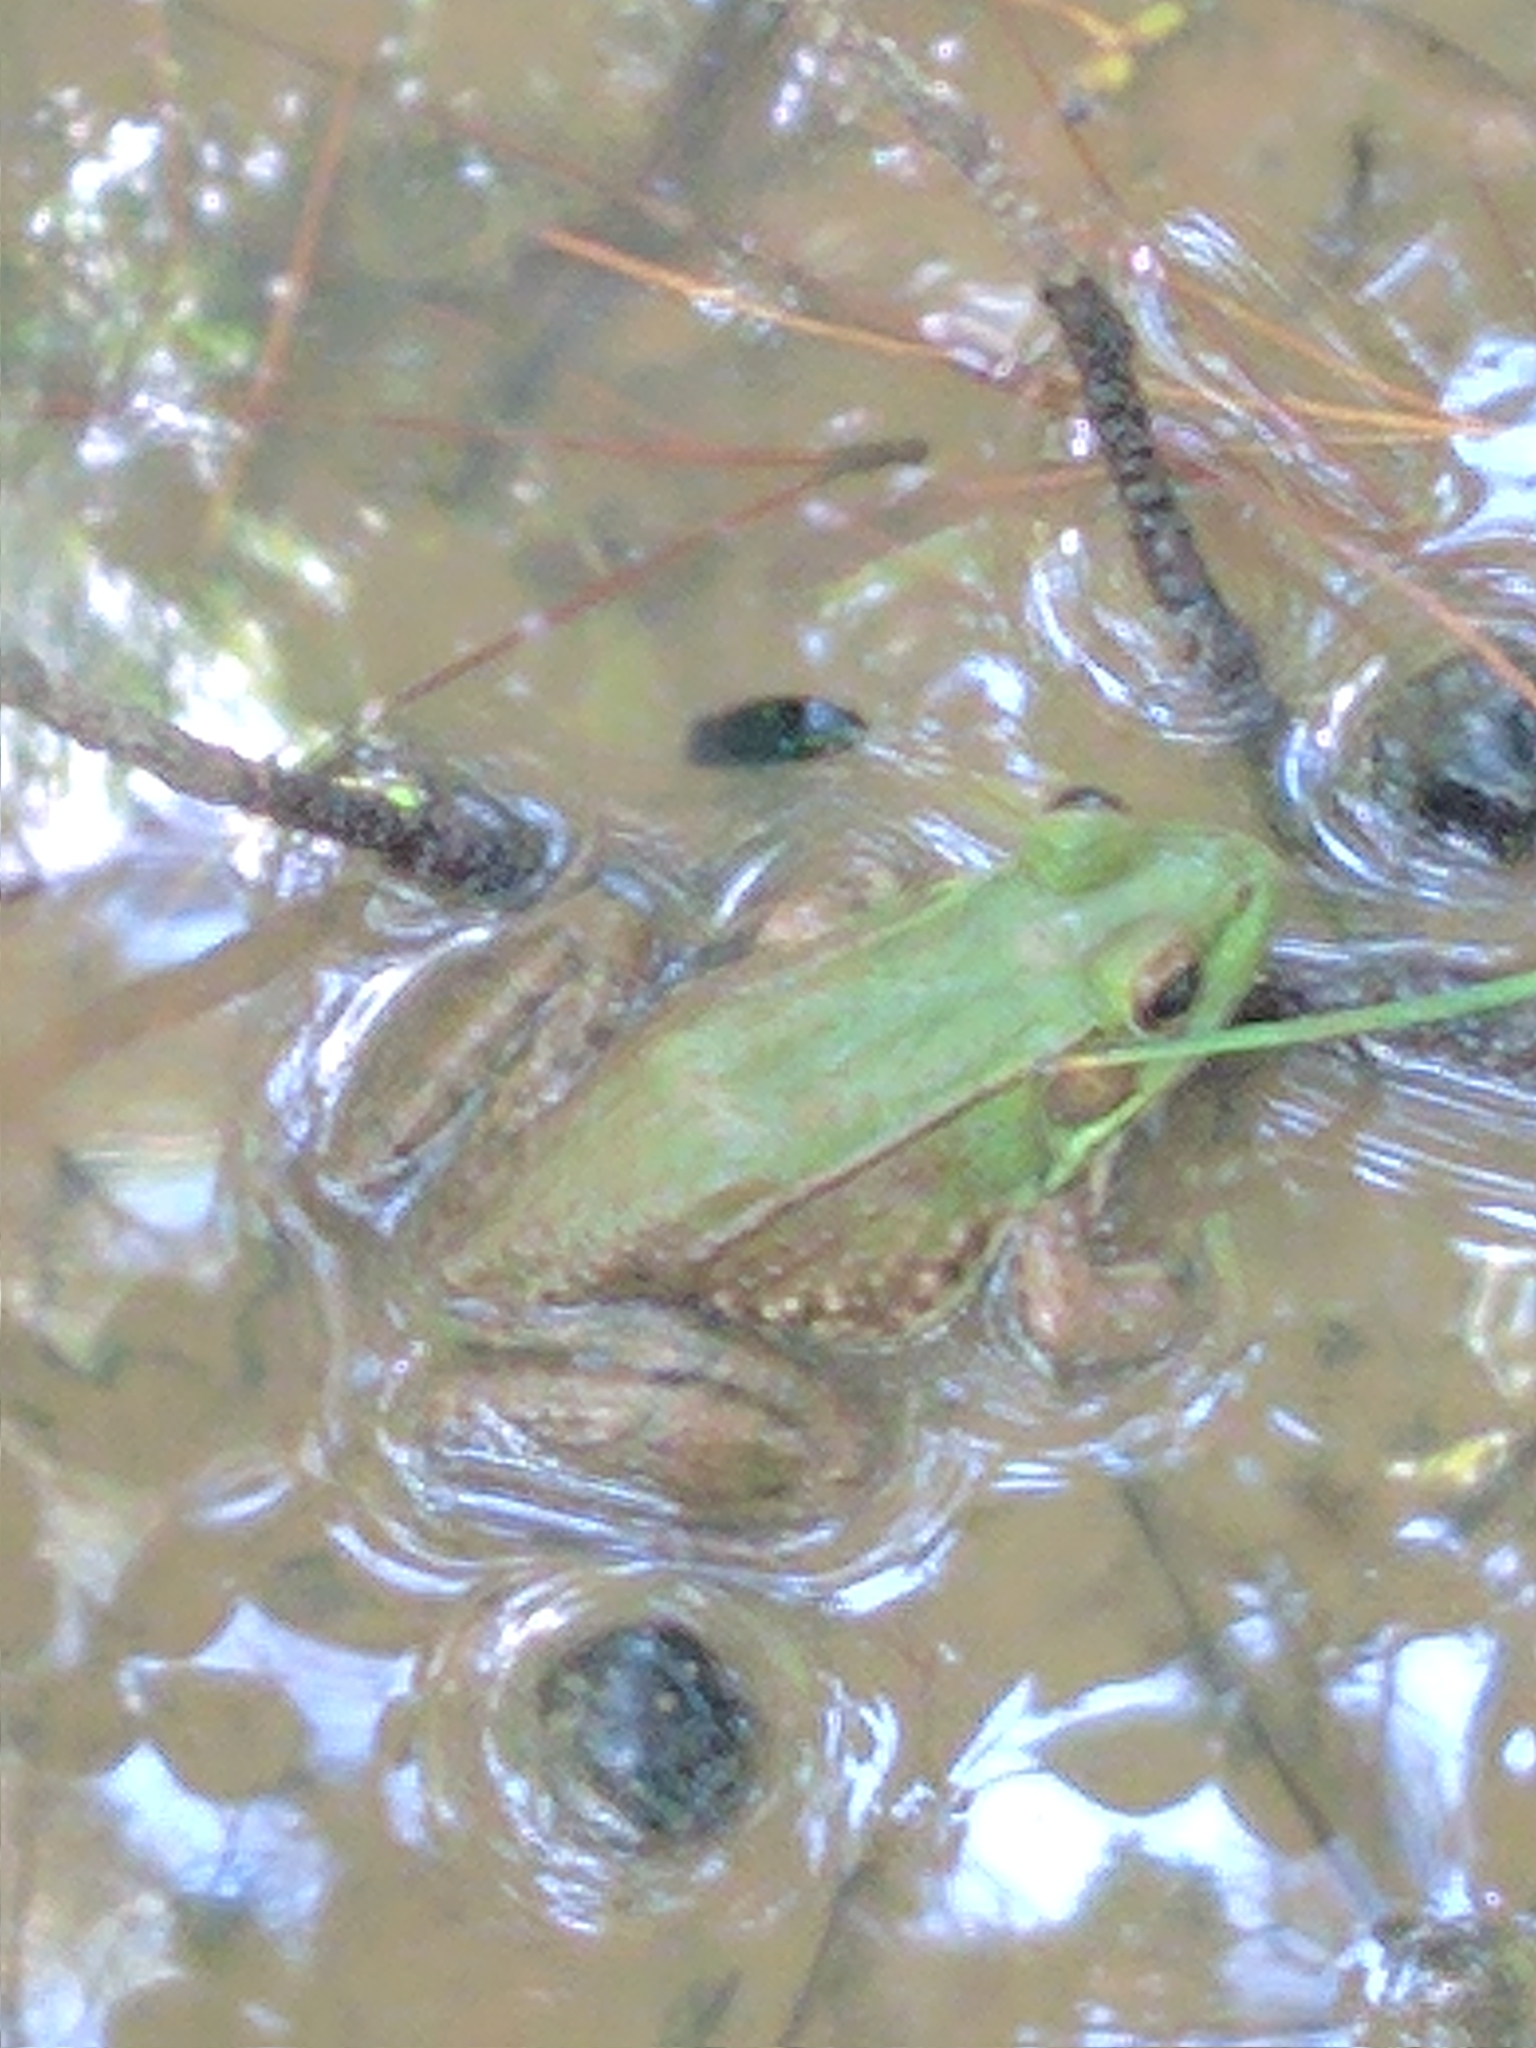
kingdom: Animalia
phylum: Chordata
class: Amphibia
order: Anura
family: Ranidae
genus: Lithobates
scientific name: Lithobates clamitans
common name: Green frog
